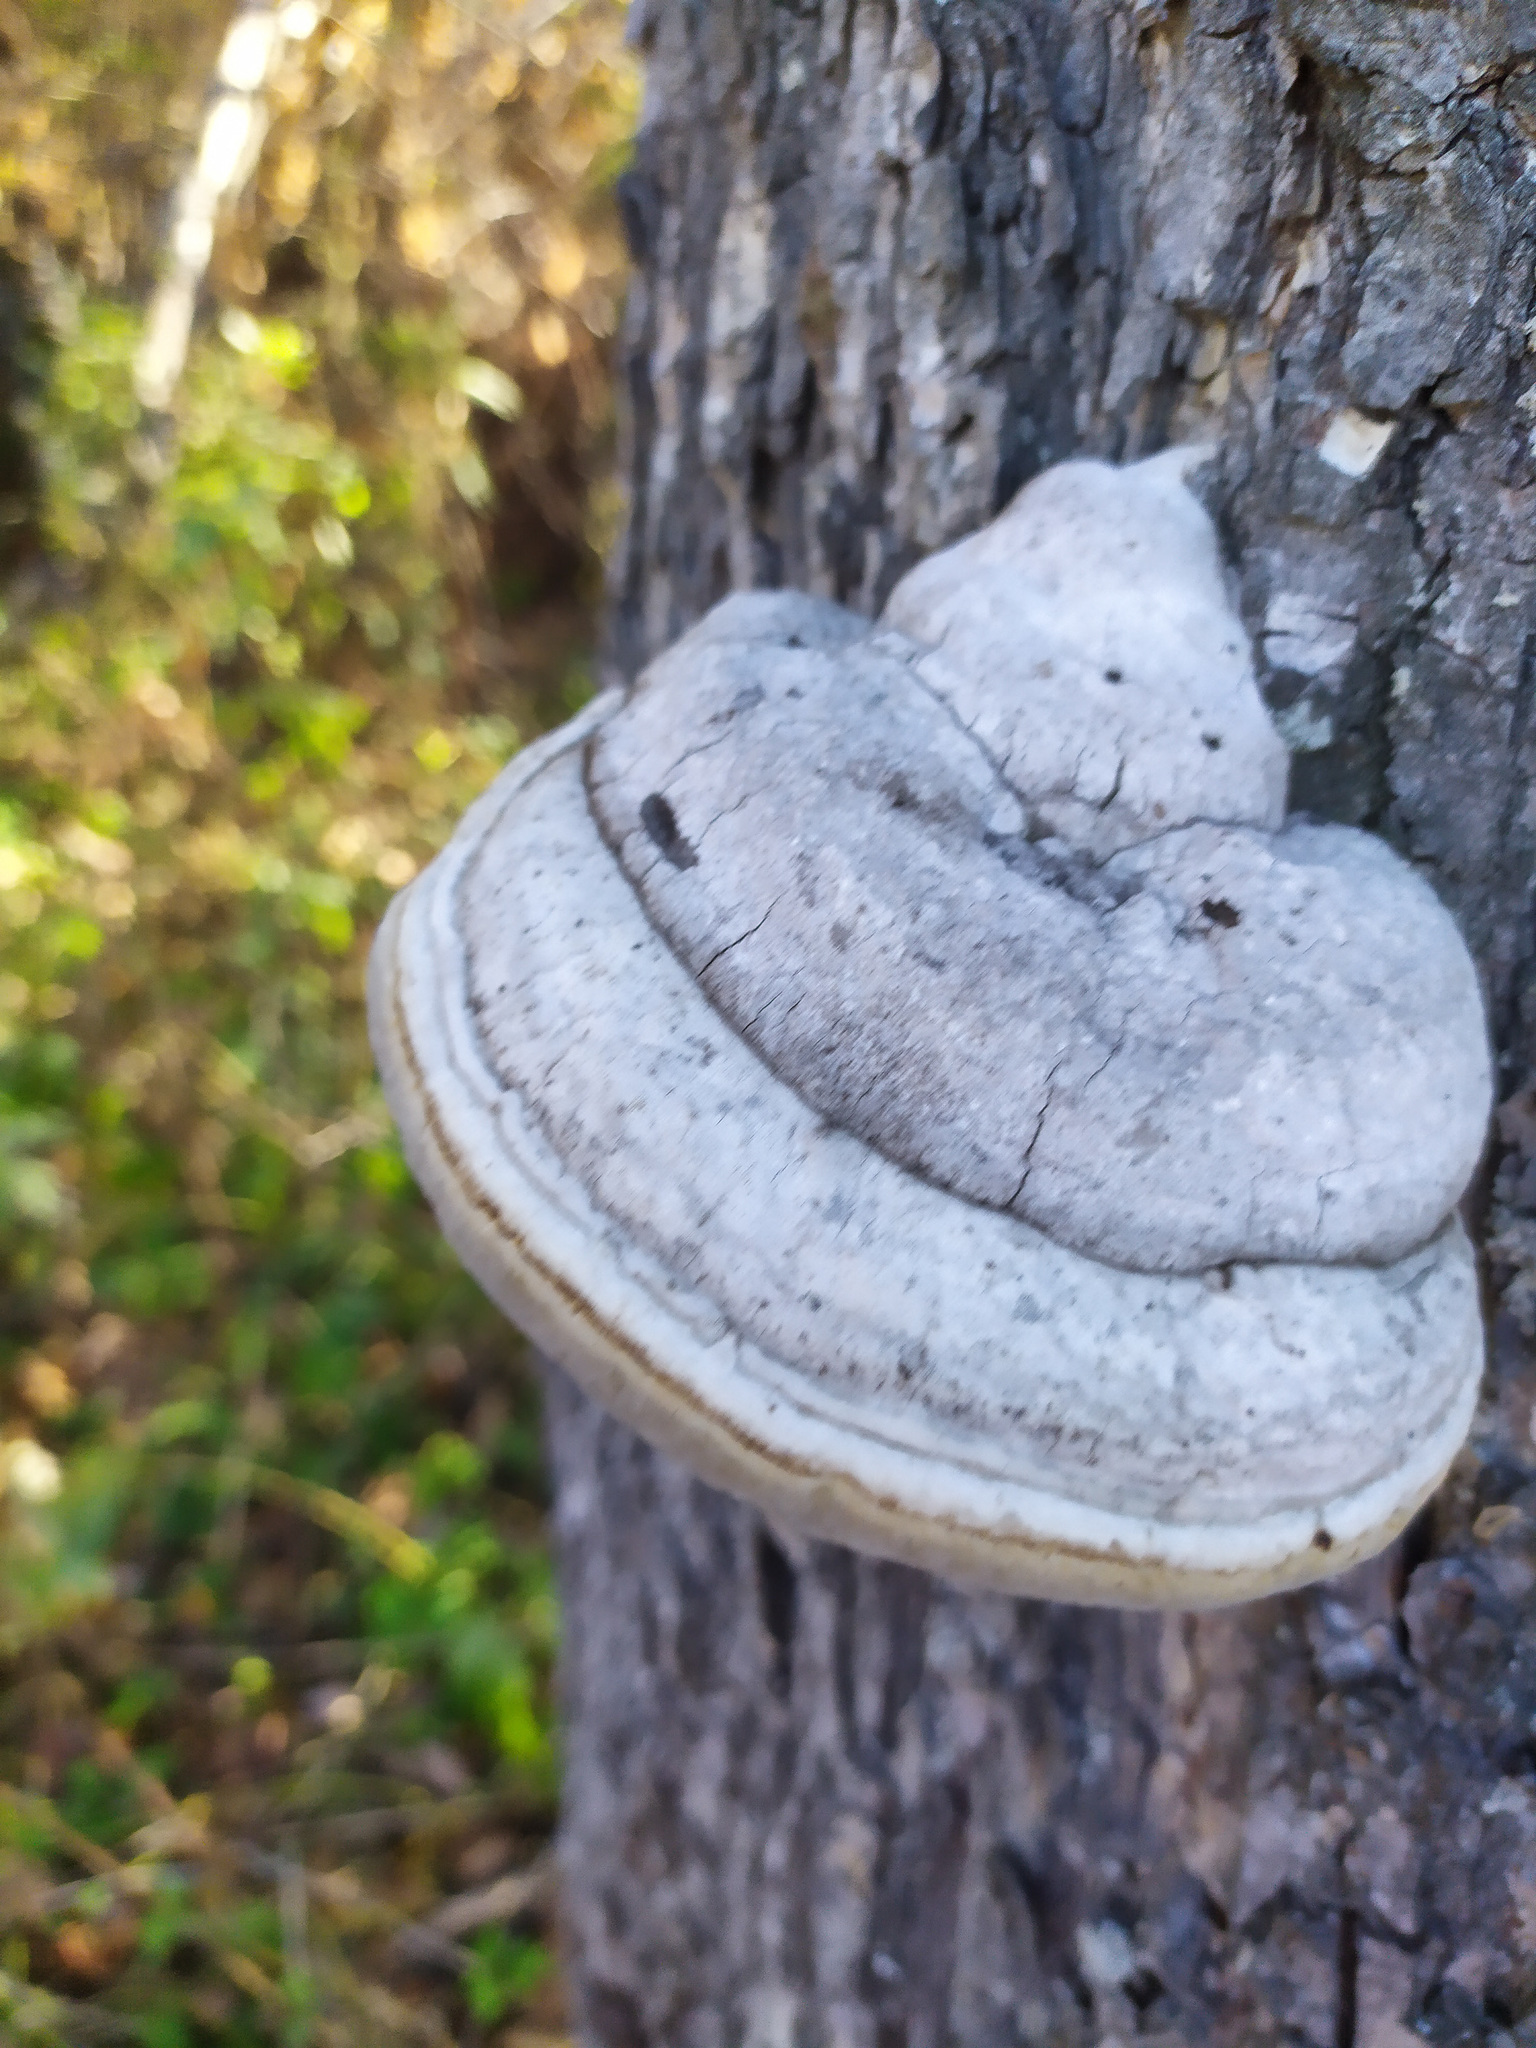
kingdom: Fungi
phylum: Basidiomycota
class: Agaricomycetes
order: Polyporales
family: Polyporaceae
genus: Fomes
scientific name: Fomes fomentarius
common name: Hoof fungus
